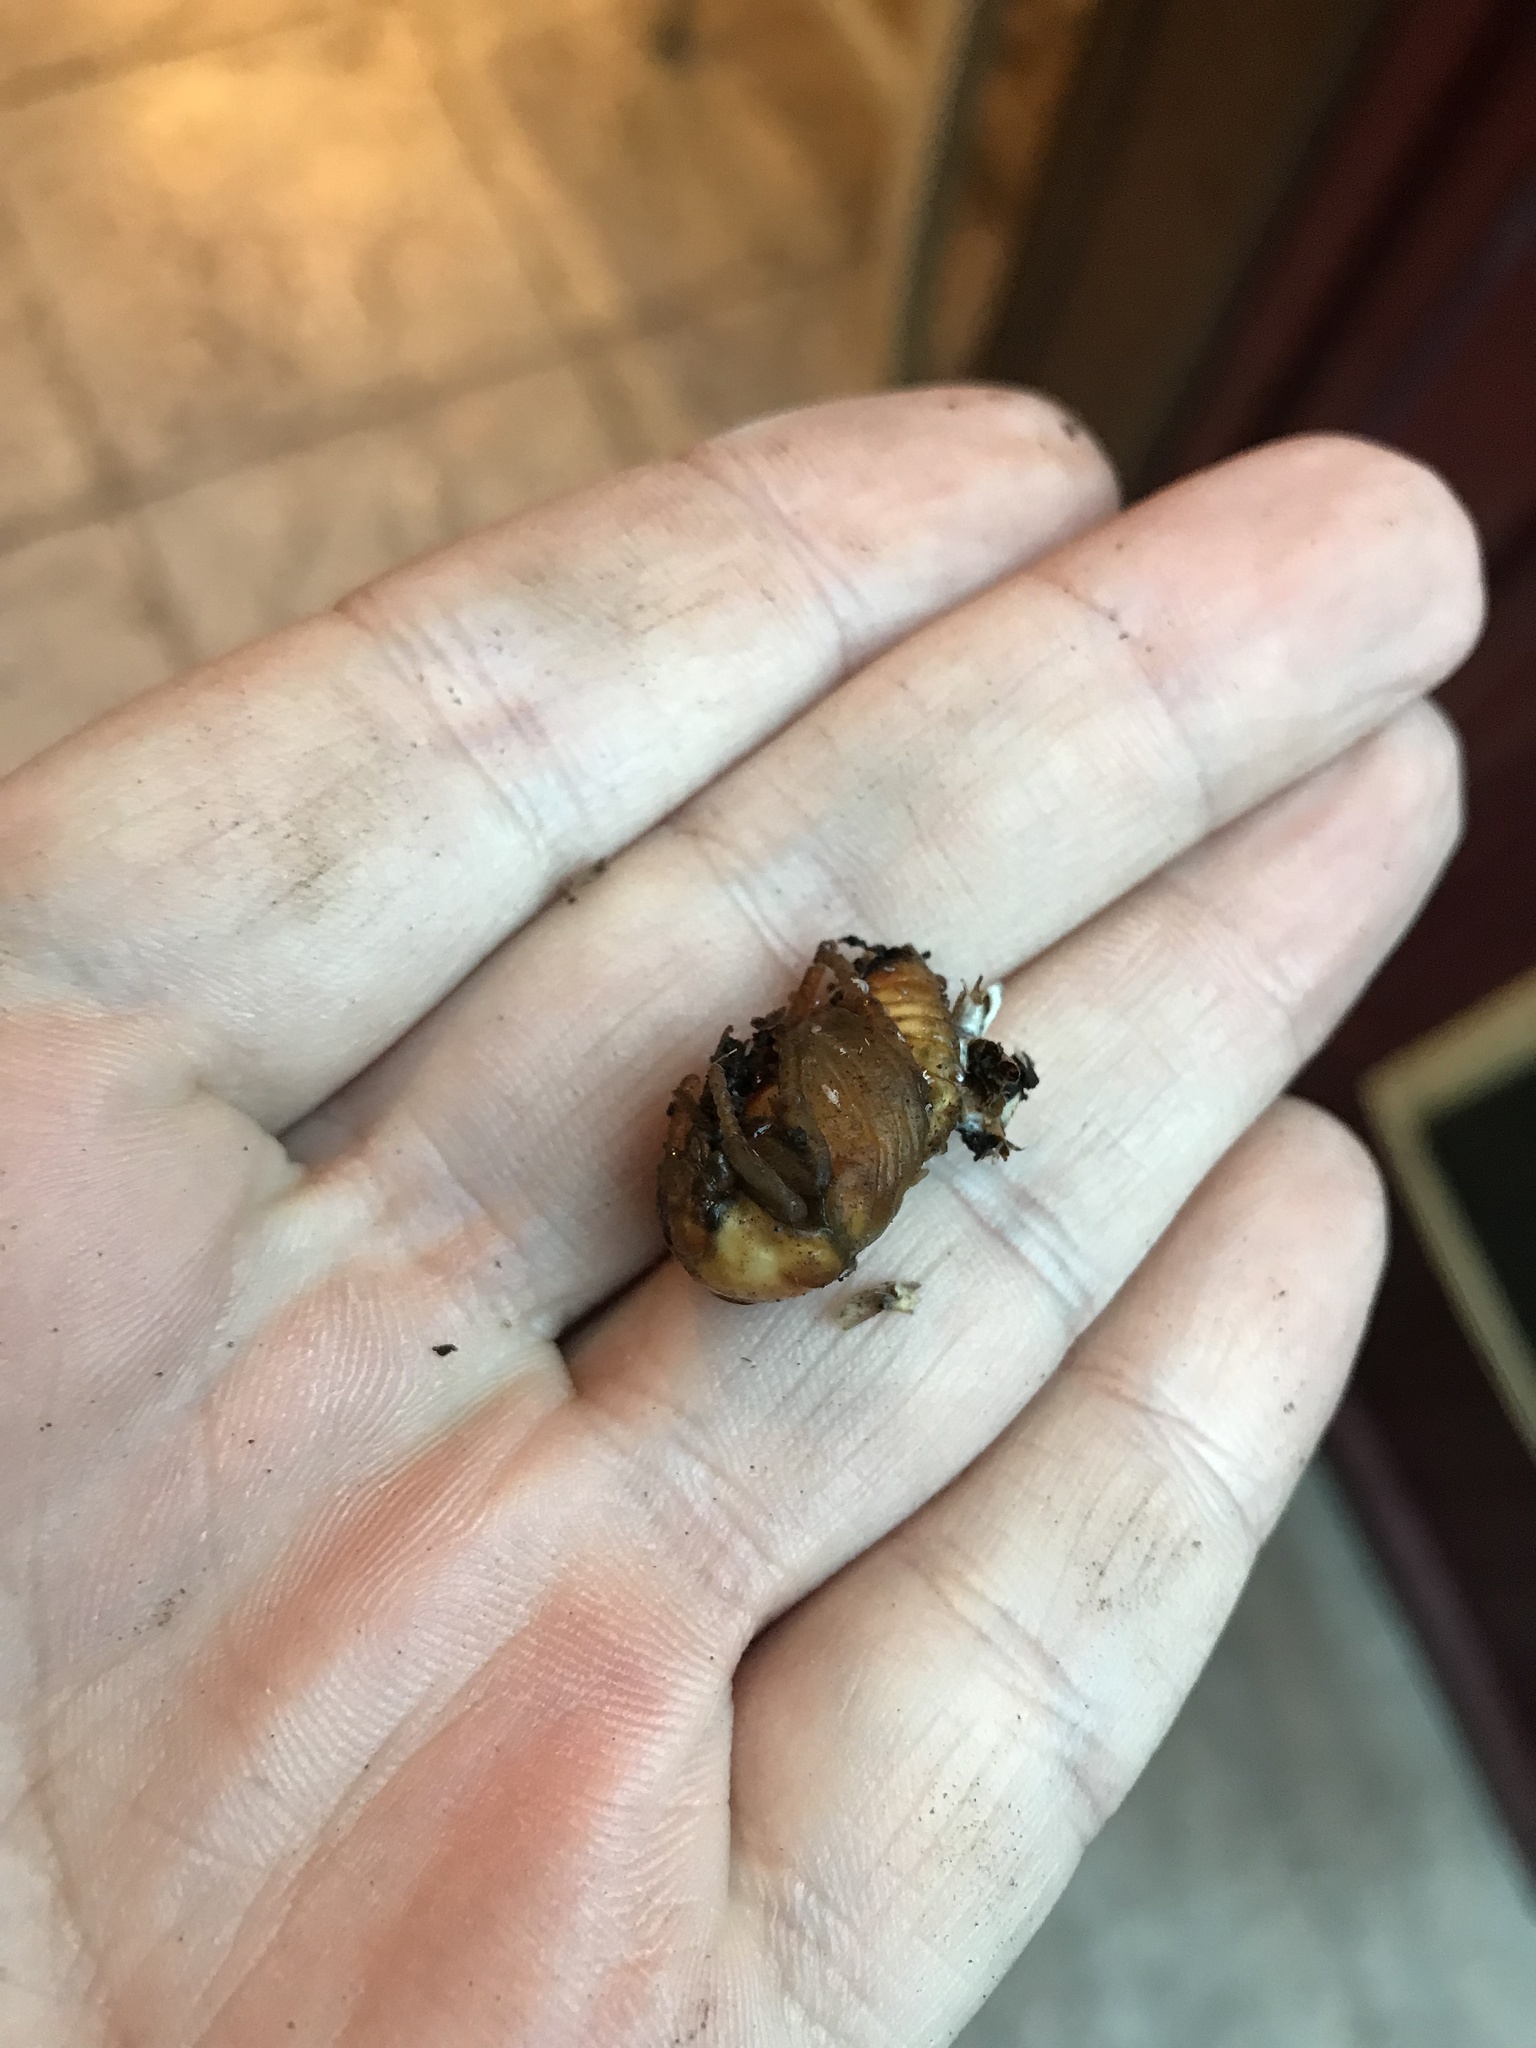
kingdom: Animalia
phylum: Arthropoda
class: Insecta
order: Coleoptera
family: Scarabaeidae
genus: Gymnetis
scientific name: Gymnetis chalcipes
